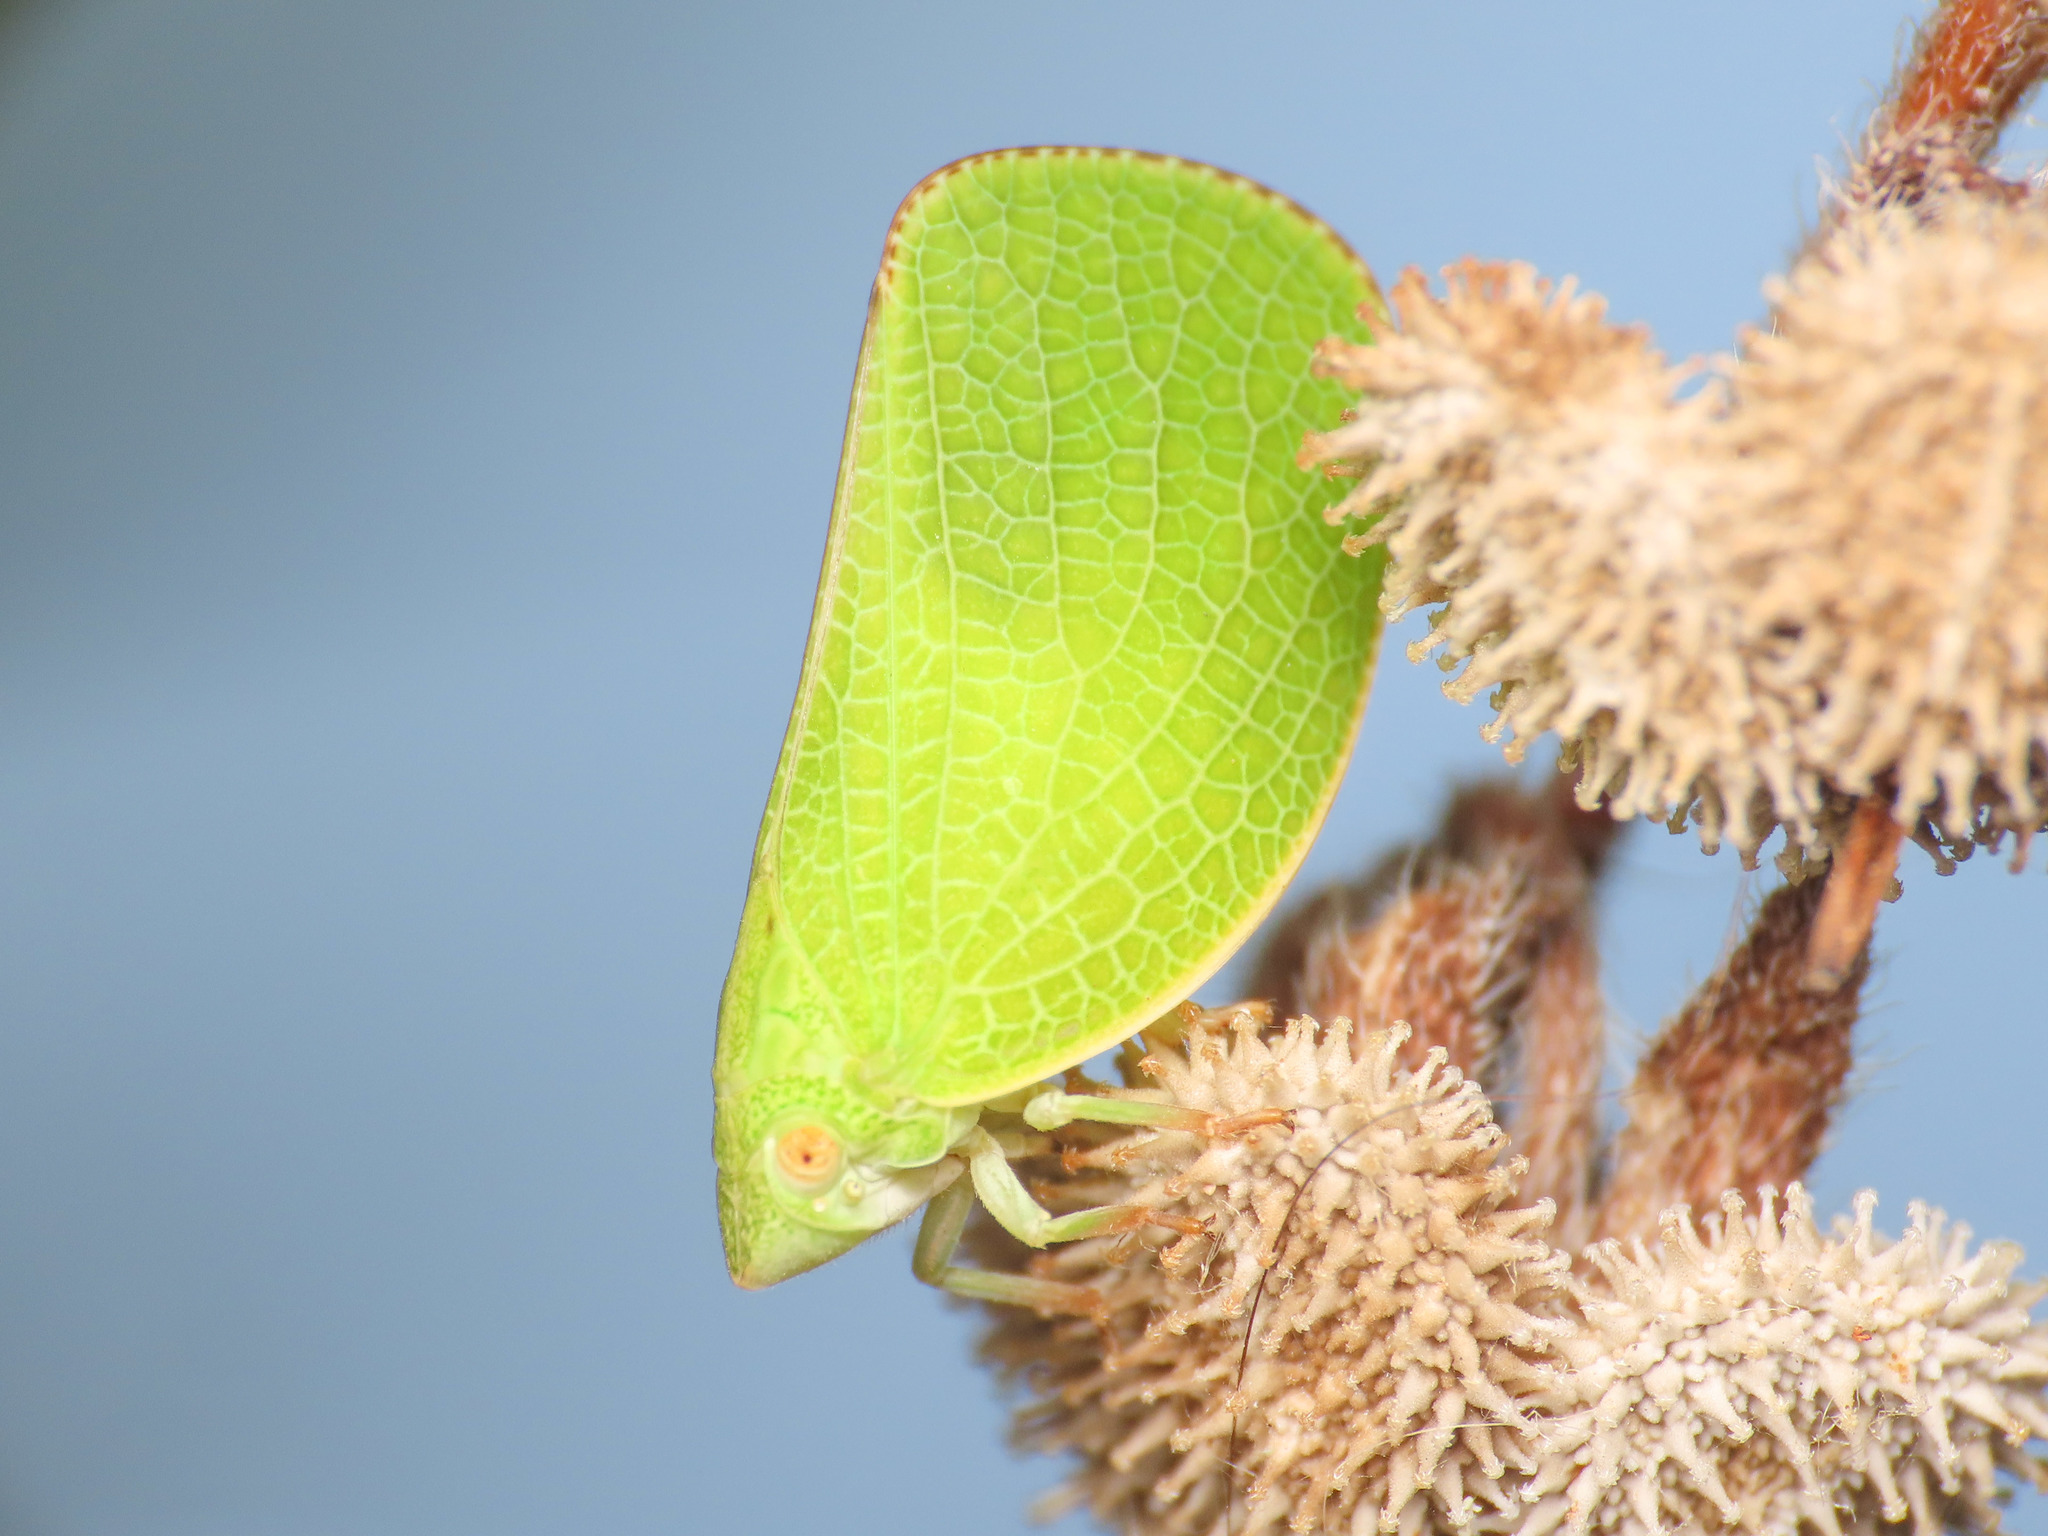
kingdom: Animalia
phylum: Arthropoda
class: Insecta
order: Hemiptera
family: Acanaloniidae
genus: Acanalonia
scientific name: Acanalonia conica
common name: Green cone-headed planthopper
